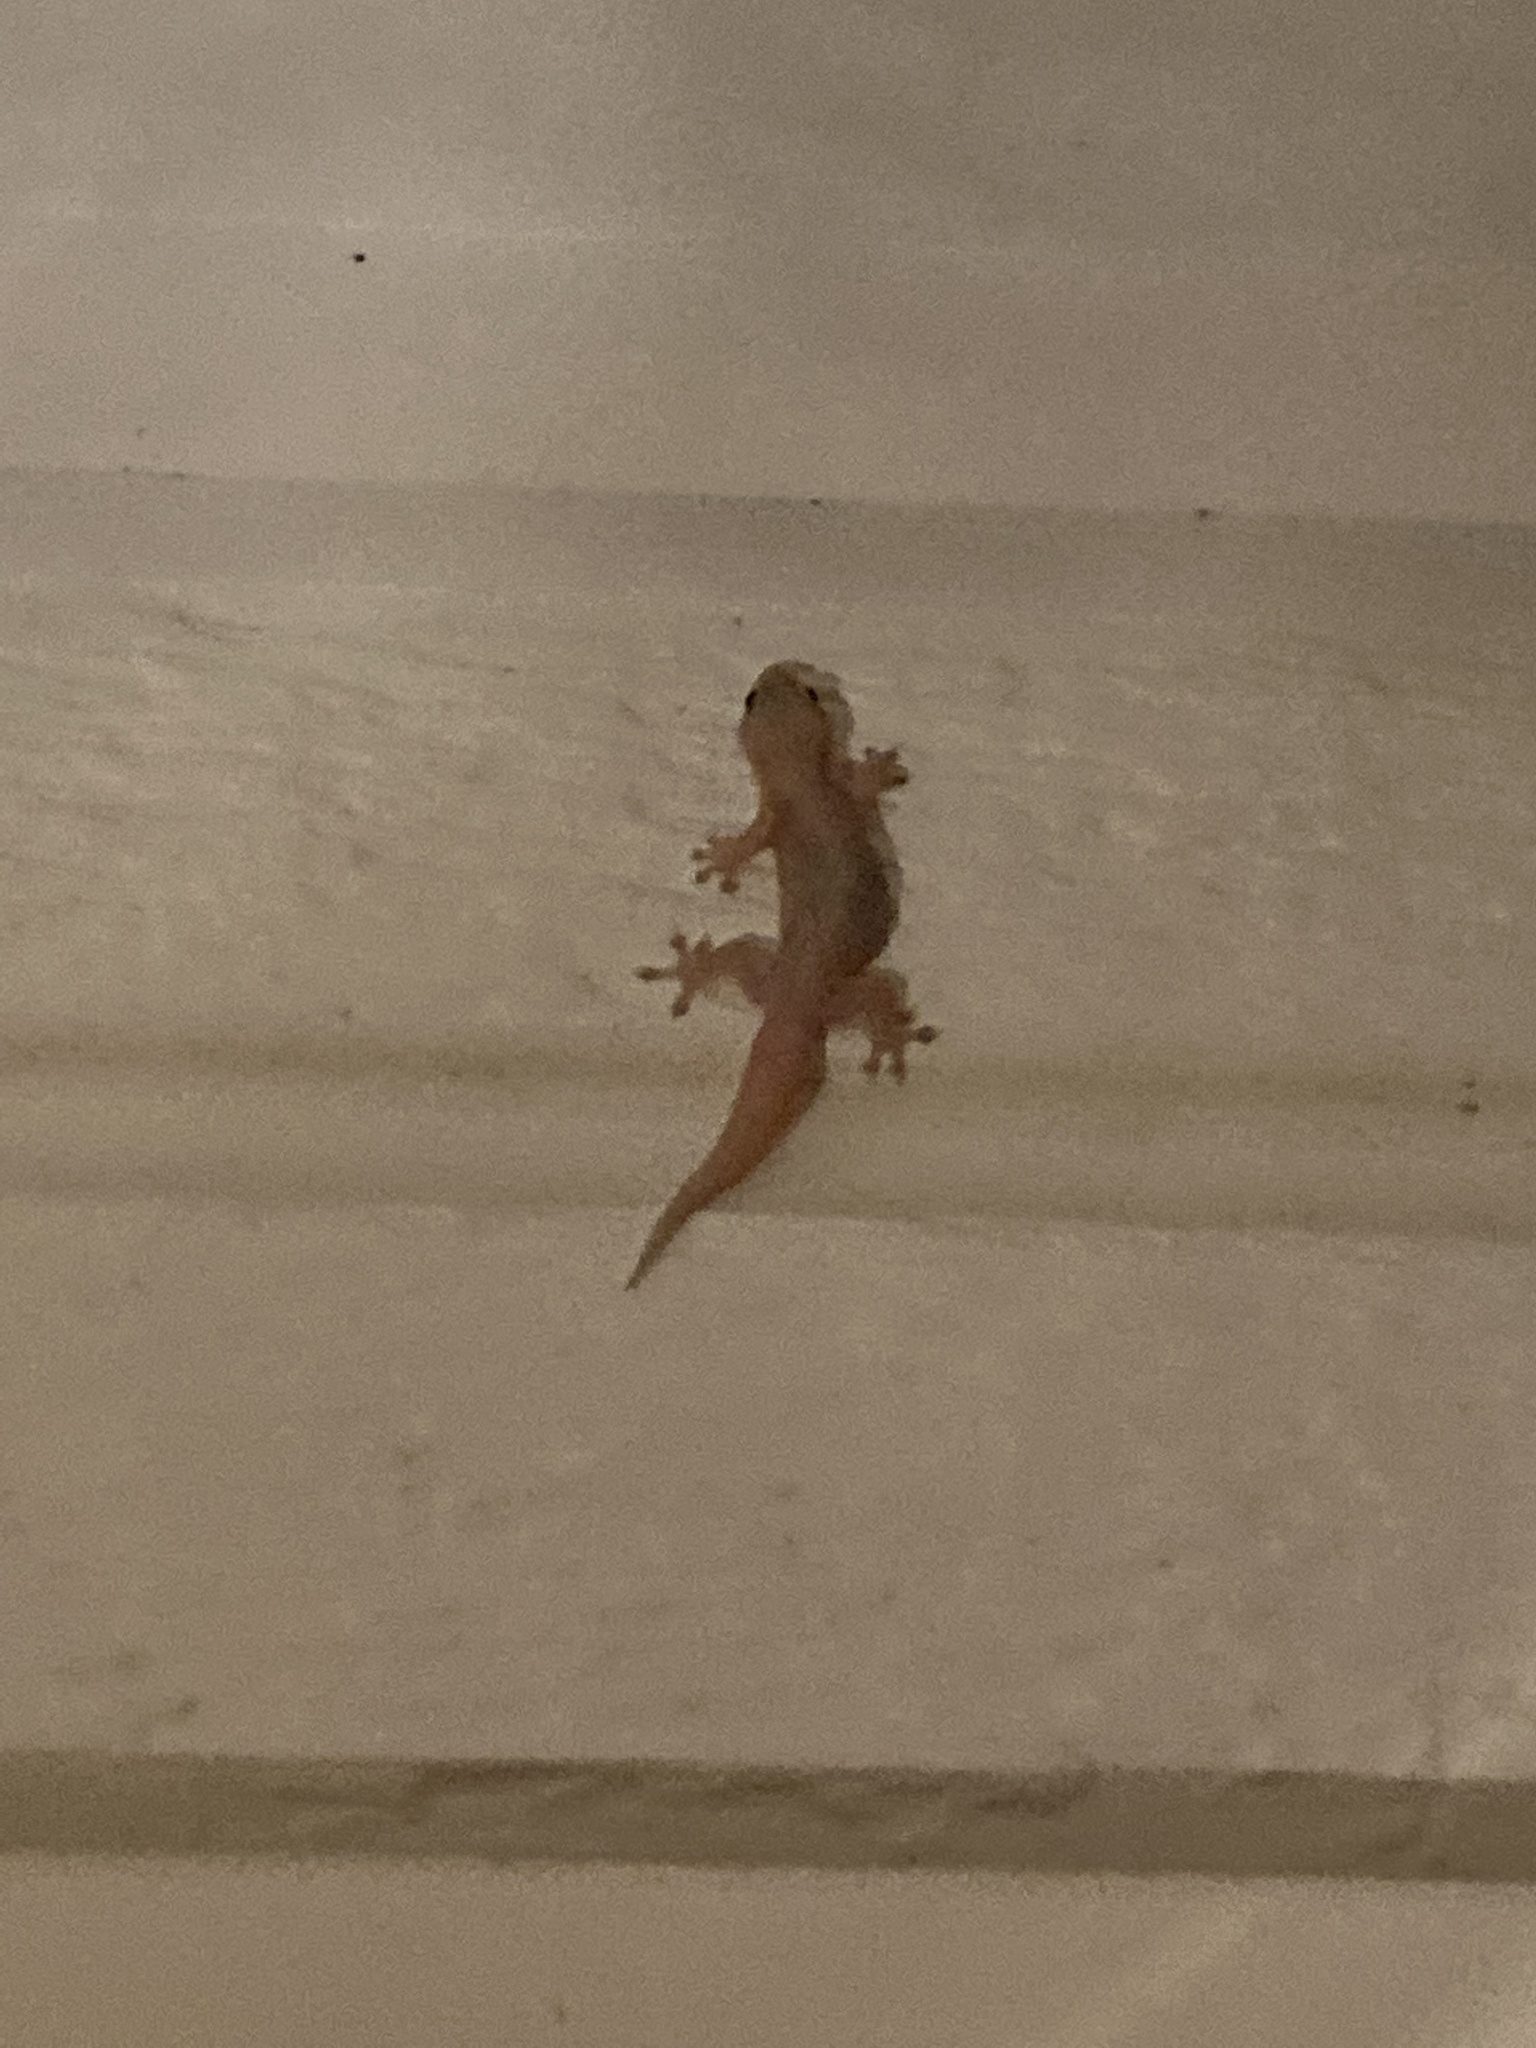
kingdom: Animalia
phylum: Chordata
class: Squamata
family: Gekkonidae
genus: Gehyra
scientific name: Gehyra mutilata
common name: Stump-toed gecko
